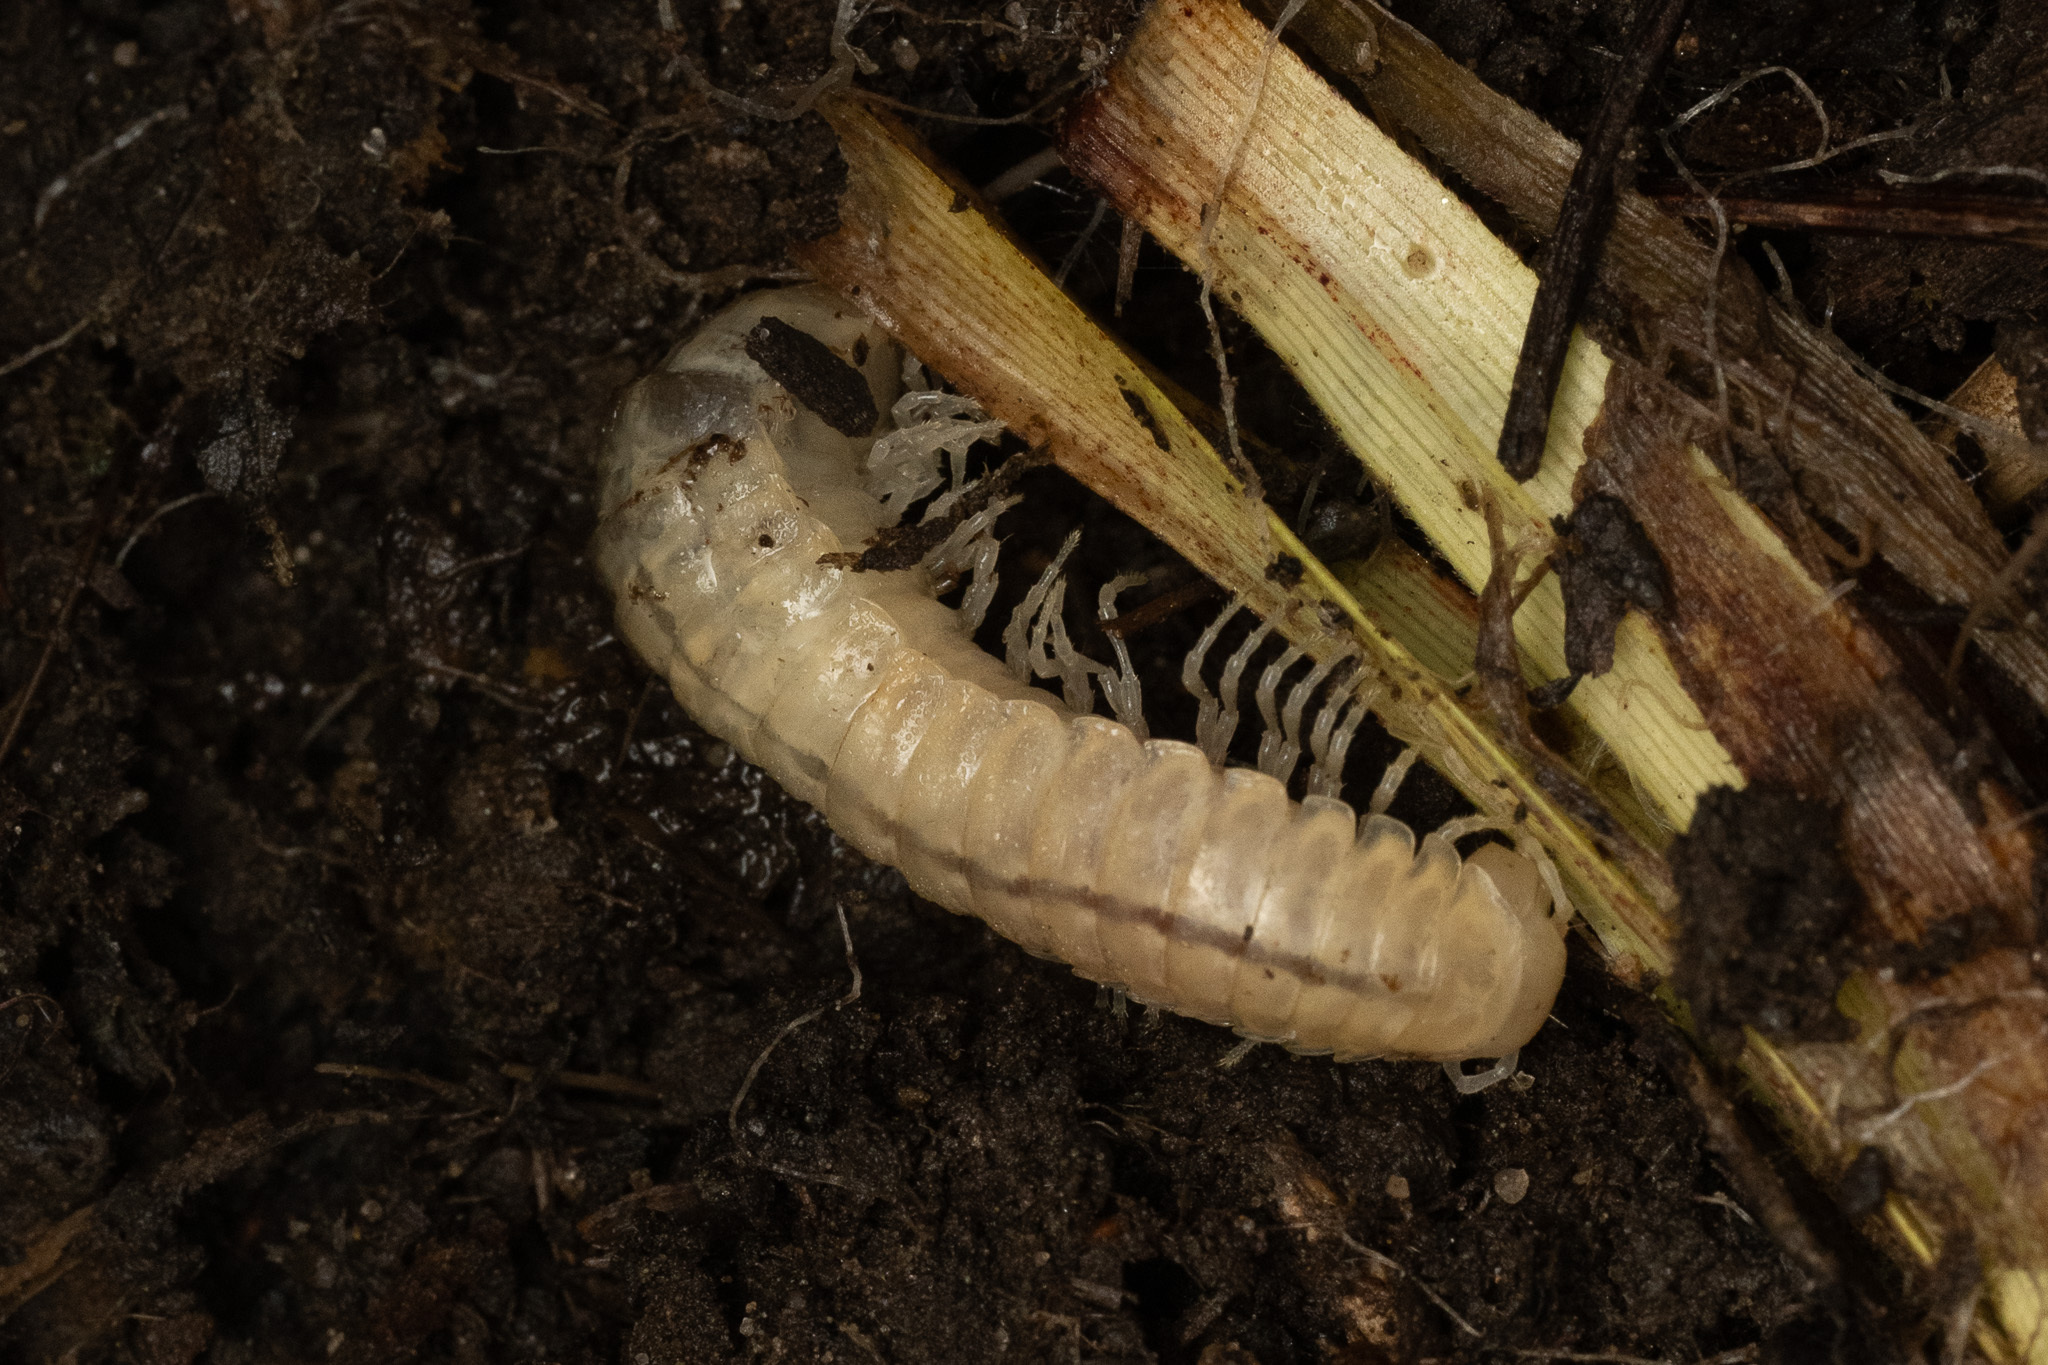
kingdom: Animalia
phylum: Arthropoda
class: Diplopoda
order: Polydesmida
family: Xystodesmidae
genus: Xystocheir
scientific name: Xystocheir dissecta
